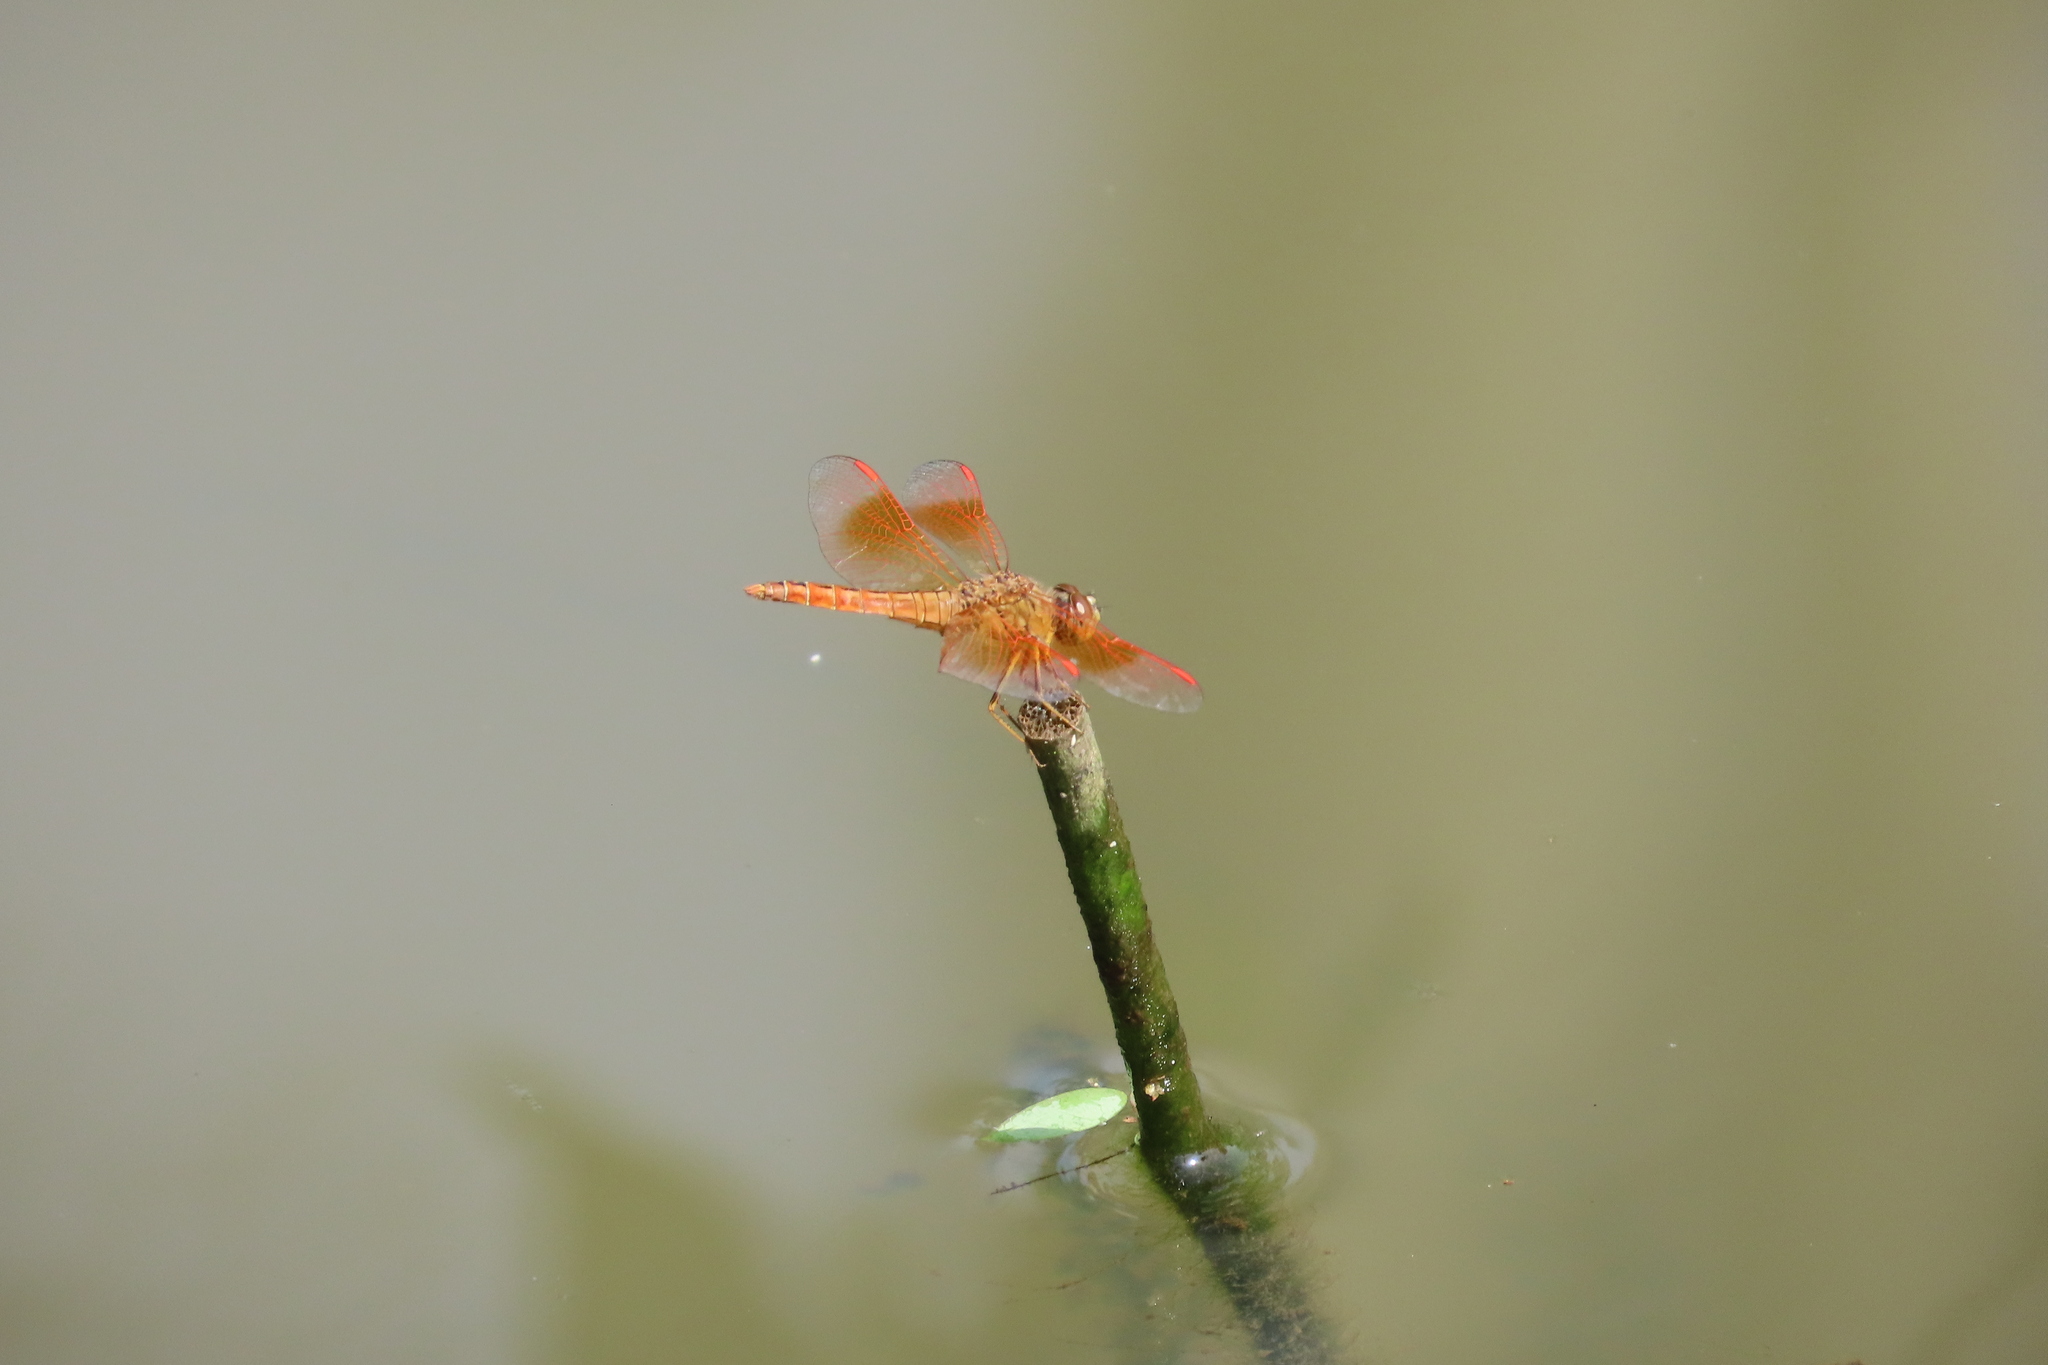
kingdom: Animalia
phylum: Arthropoda
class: Insecta
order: Odonata
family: Libellulidae
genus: Brachythemis
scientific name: Brachythemis contaminata
